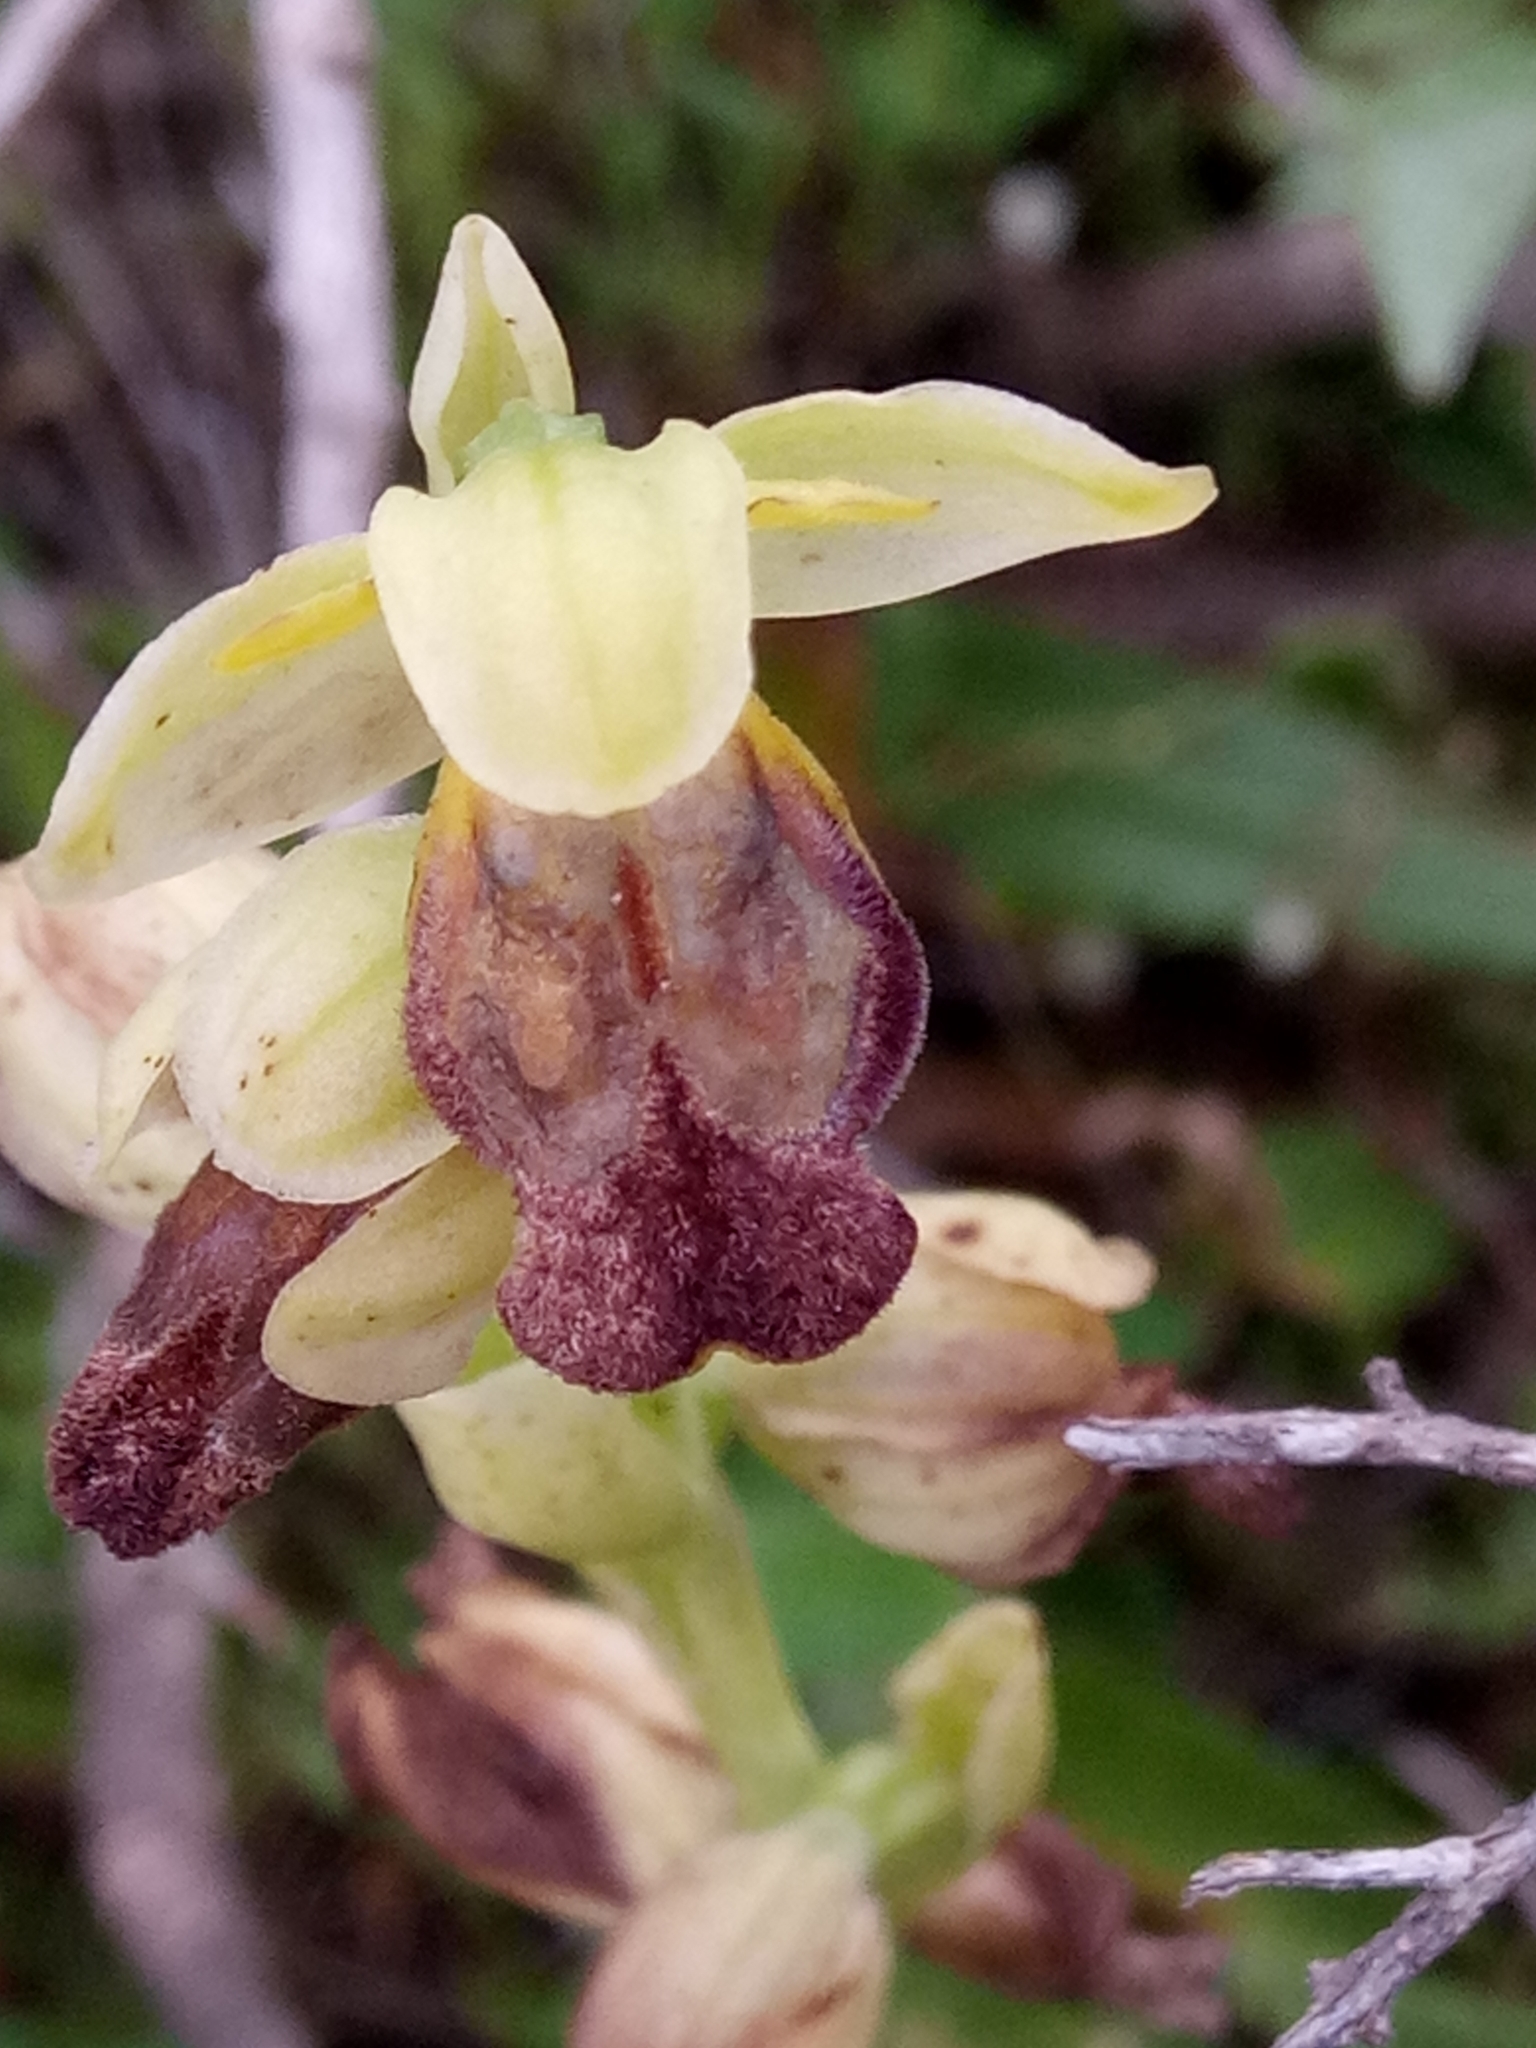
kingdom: Plantae
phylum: Tracheophyta
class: Liliopsida
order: Asparagales
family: Orchidaceae
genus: Ophrys
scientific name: Ophrys fusca
